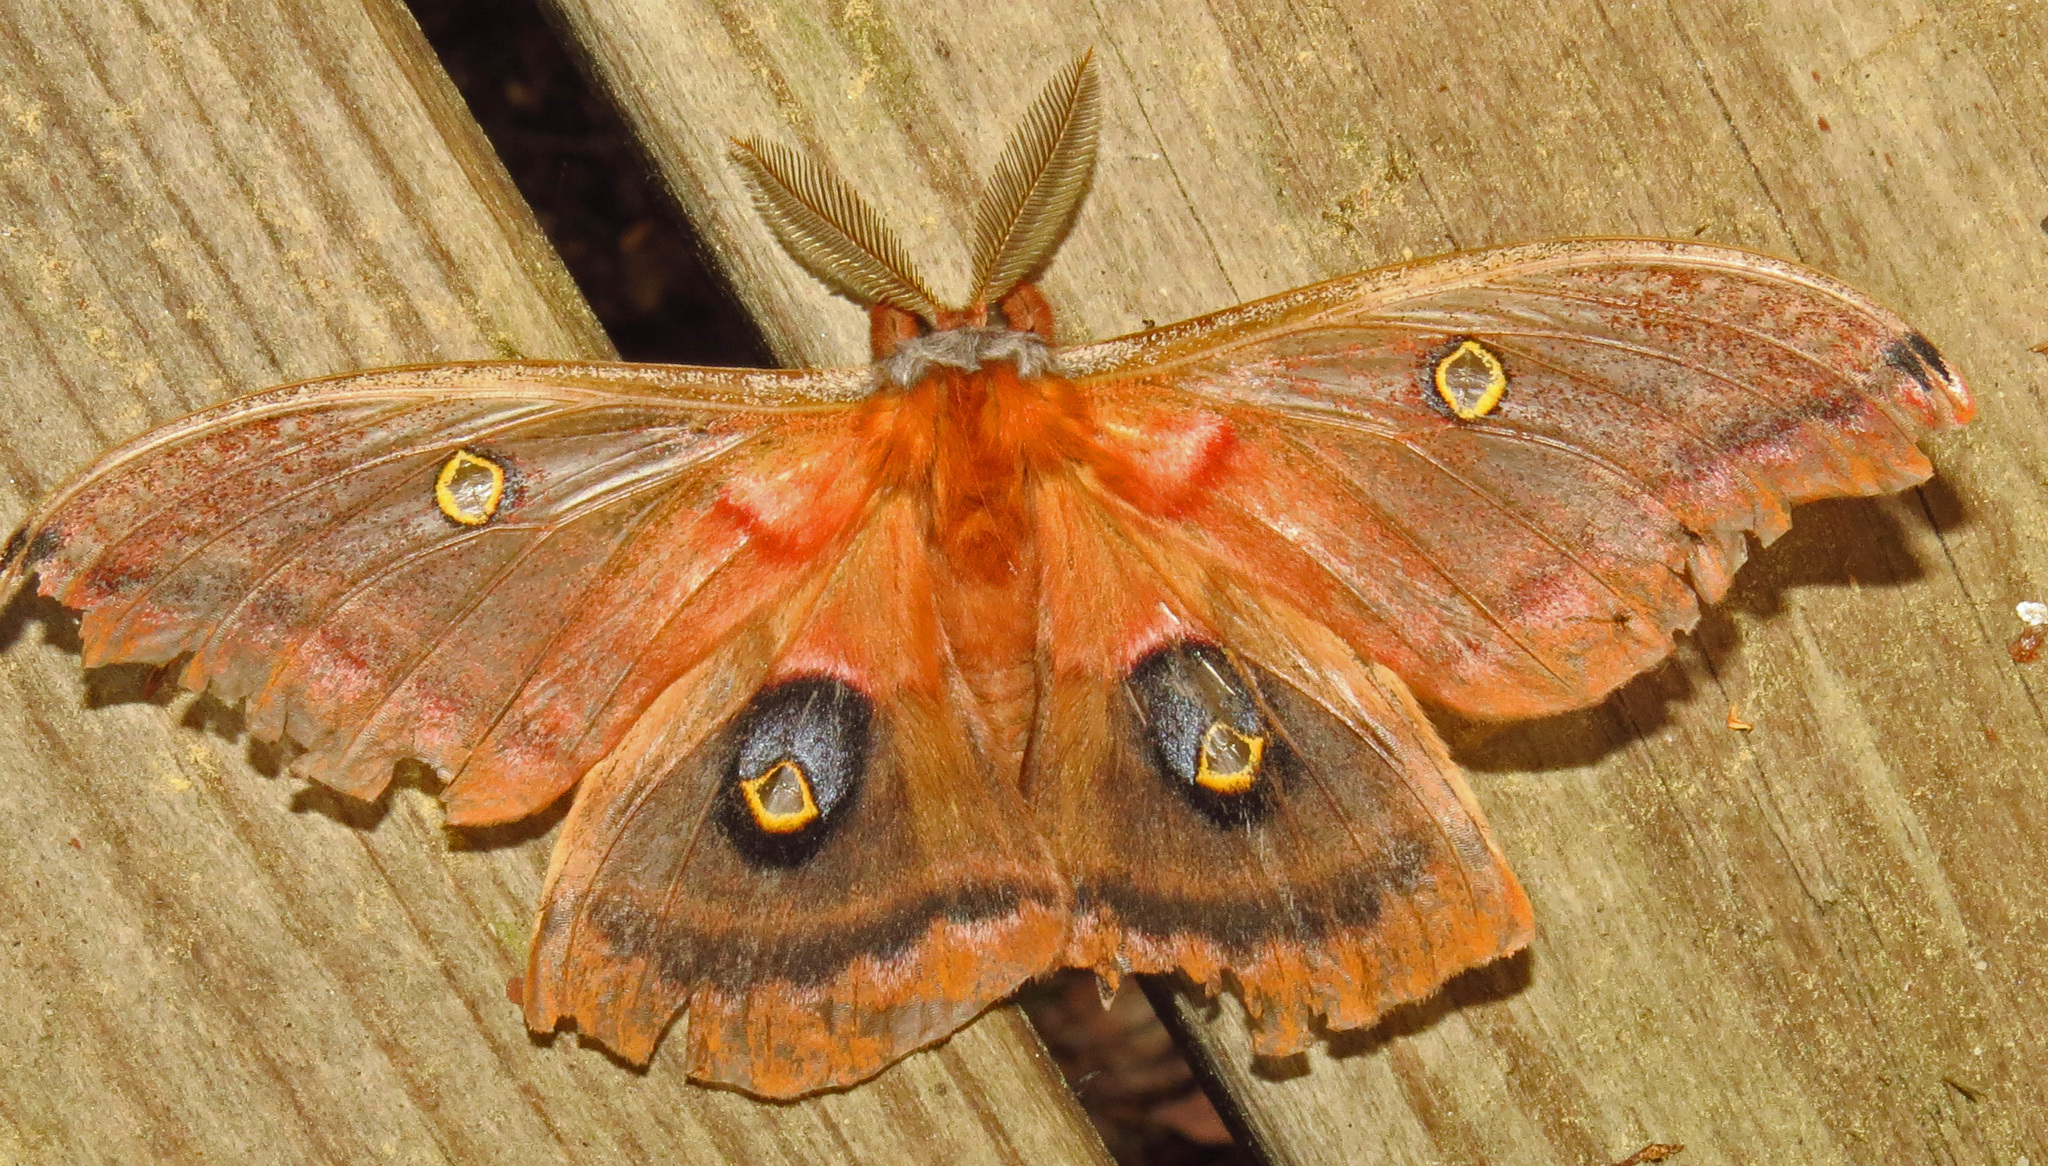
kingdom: Animalia
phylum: Arthropoda
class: Insecta
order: Lepidoptera
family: Saturniidae
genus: Antheraea
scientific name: Antheraea polyphemus
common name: Polyphemus moth
